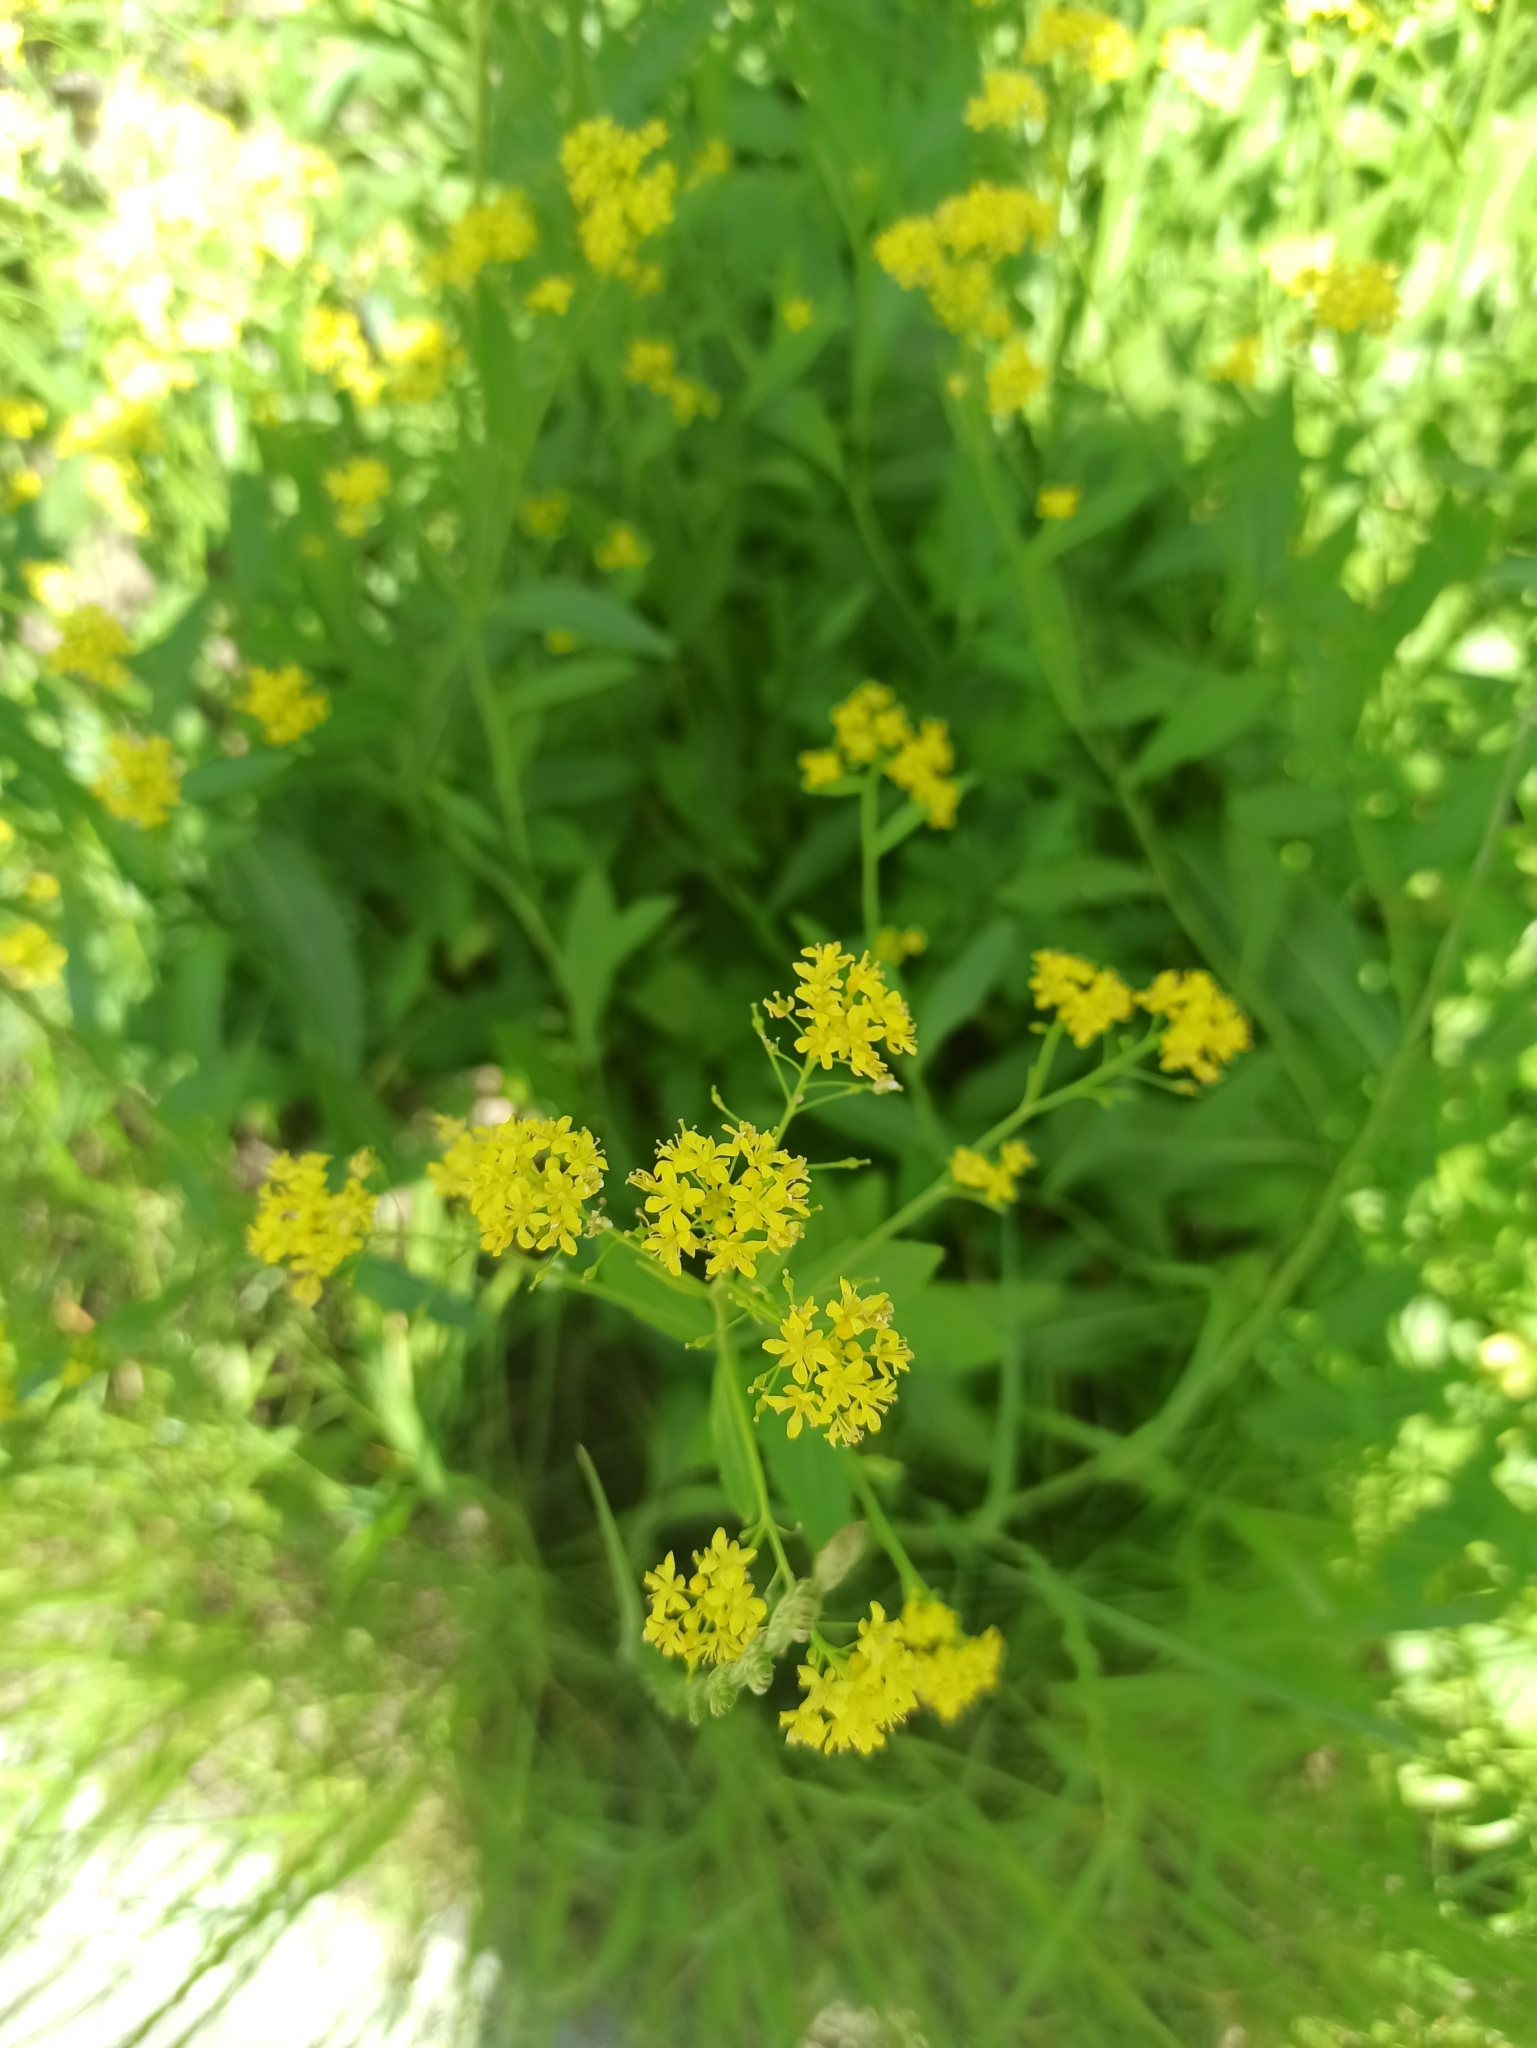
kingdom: Plantae
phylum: Tracheophyta
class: Magnoliopsida
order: Brassicales
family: Brassicaceae
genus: Rorippa
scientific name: Rorippa austriaca
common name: Austrian yellow-cress
